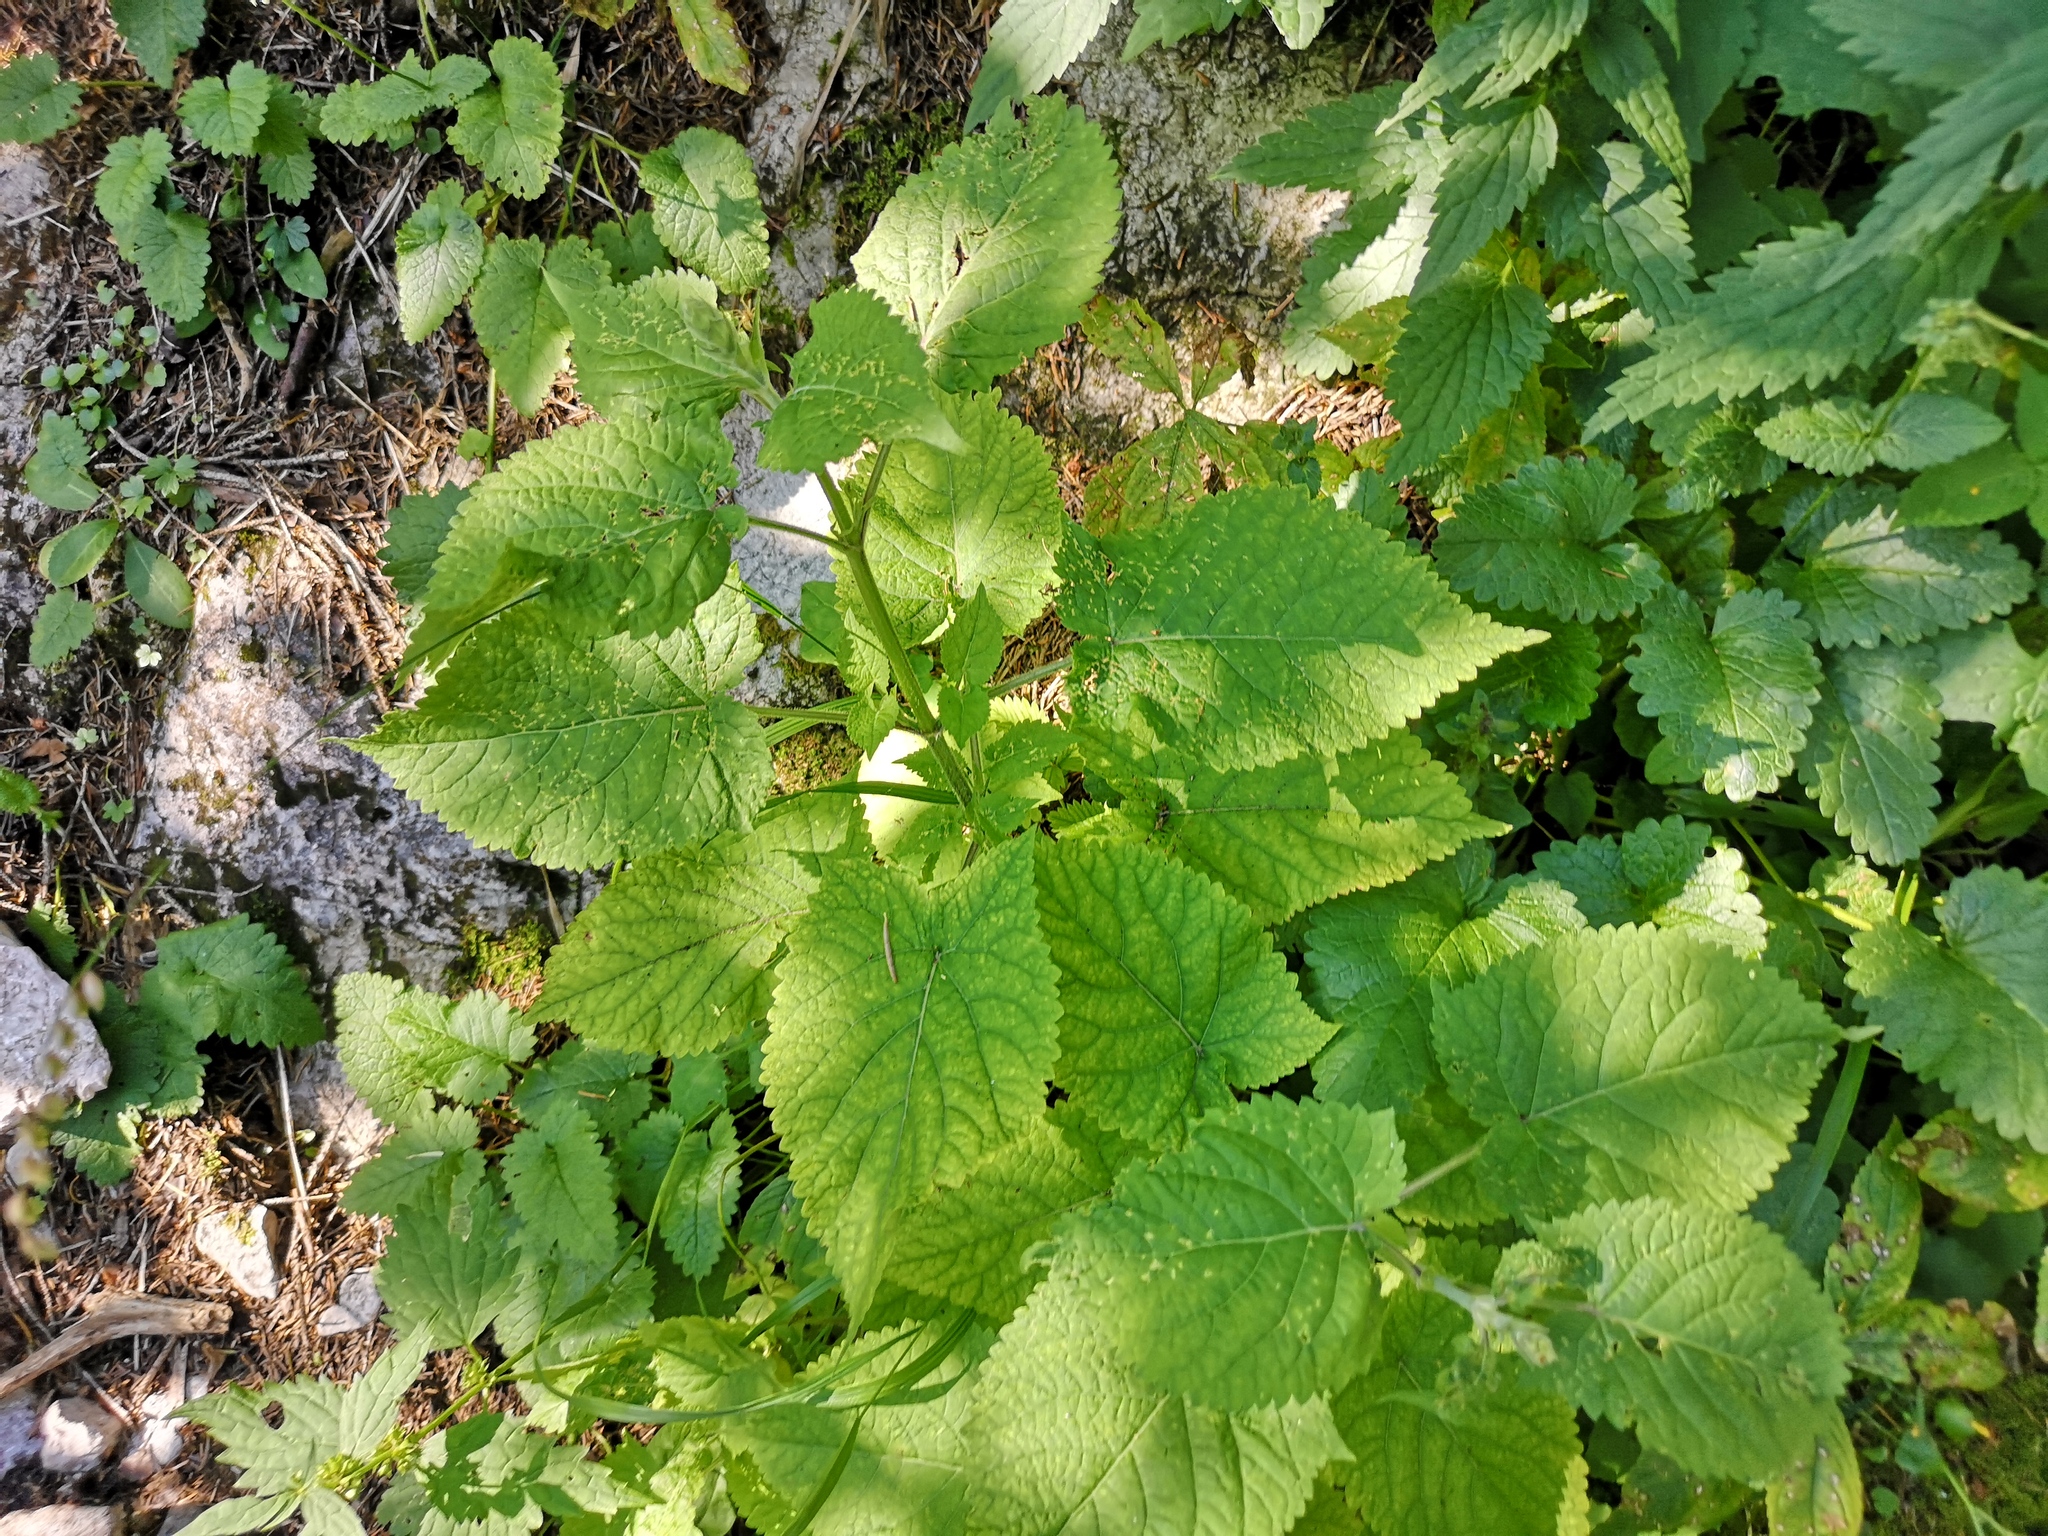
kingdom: Plantae
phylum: Tracheophyta
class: Magnoliopsida
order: Lamiales
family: Lamiaceae
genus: Salvia
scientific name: Salvia glutinosa
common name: Sticky clary
